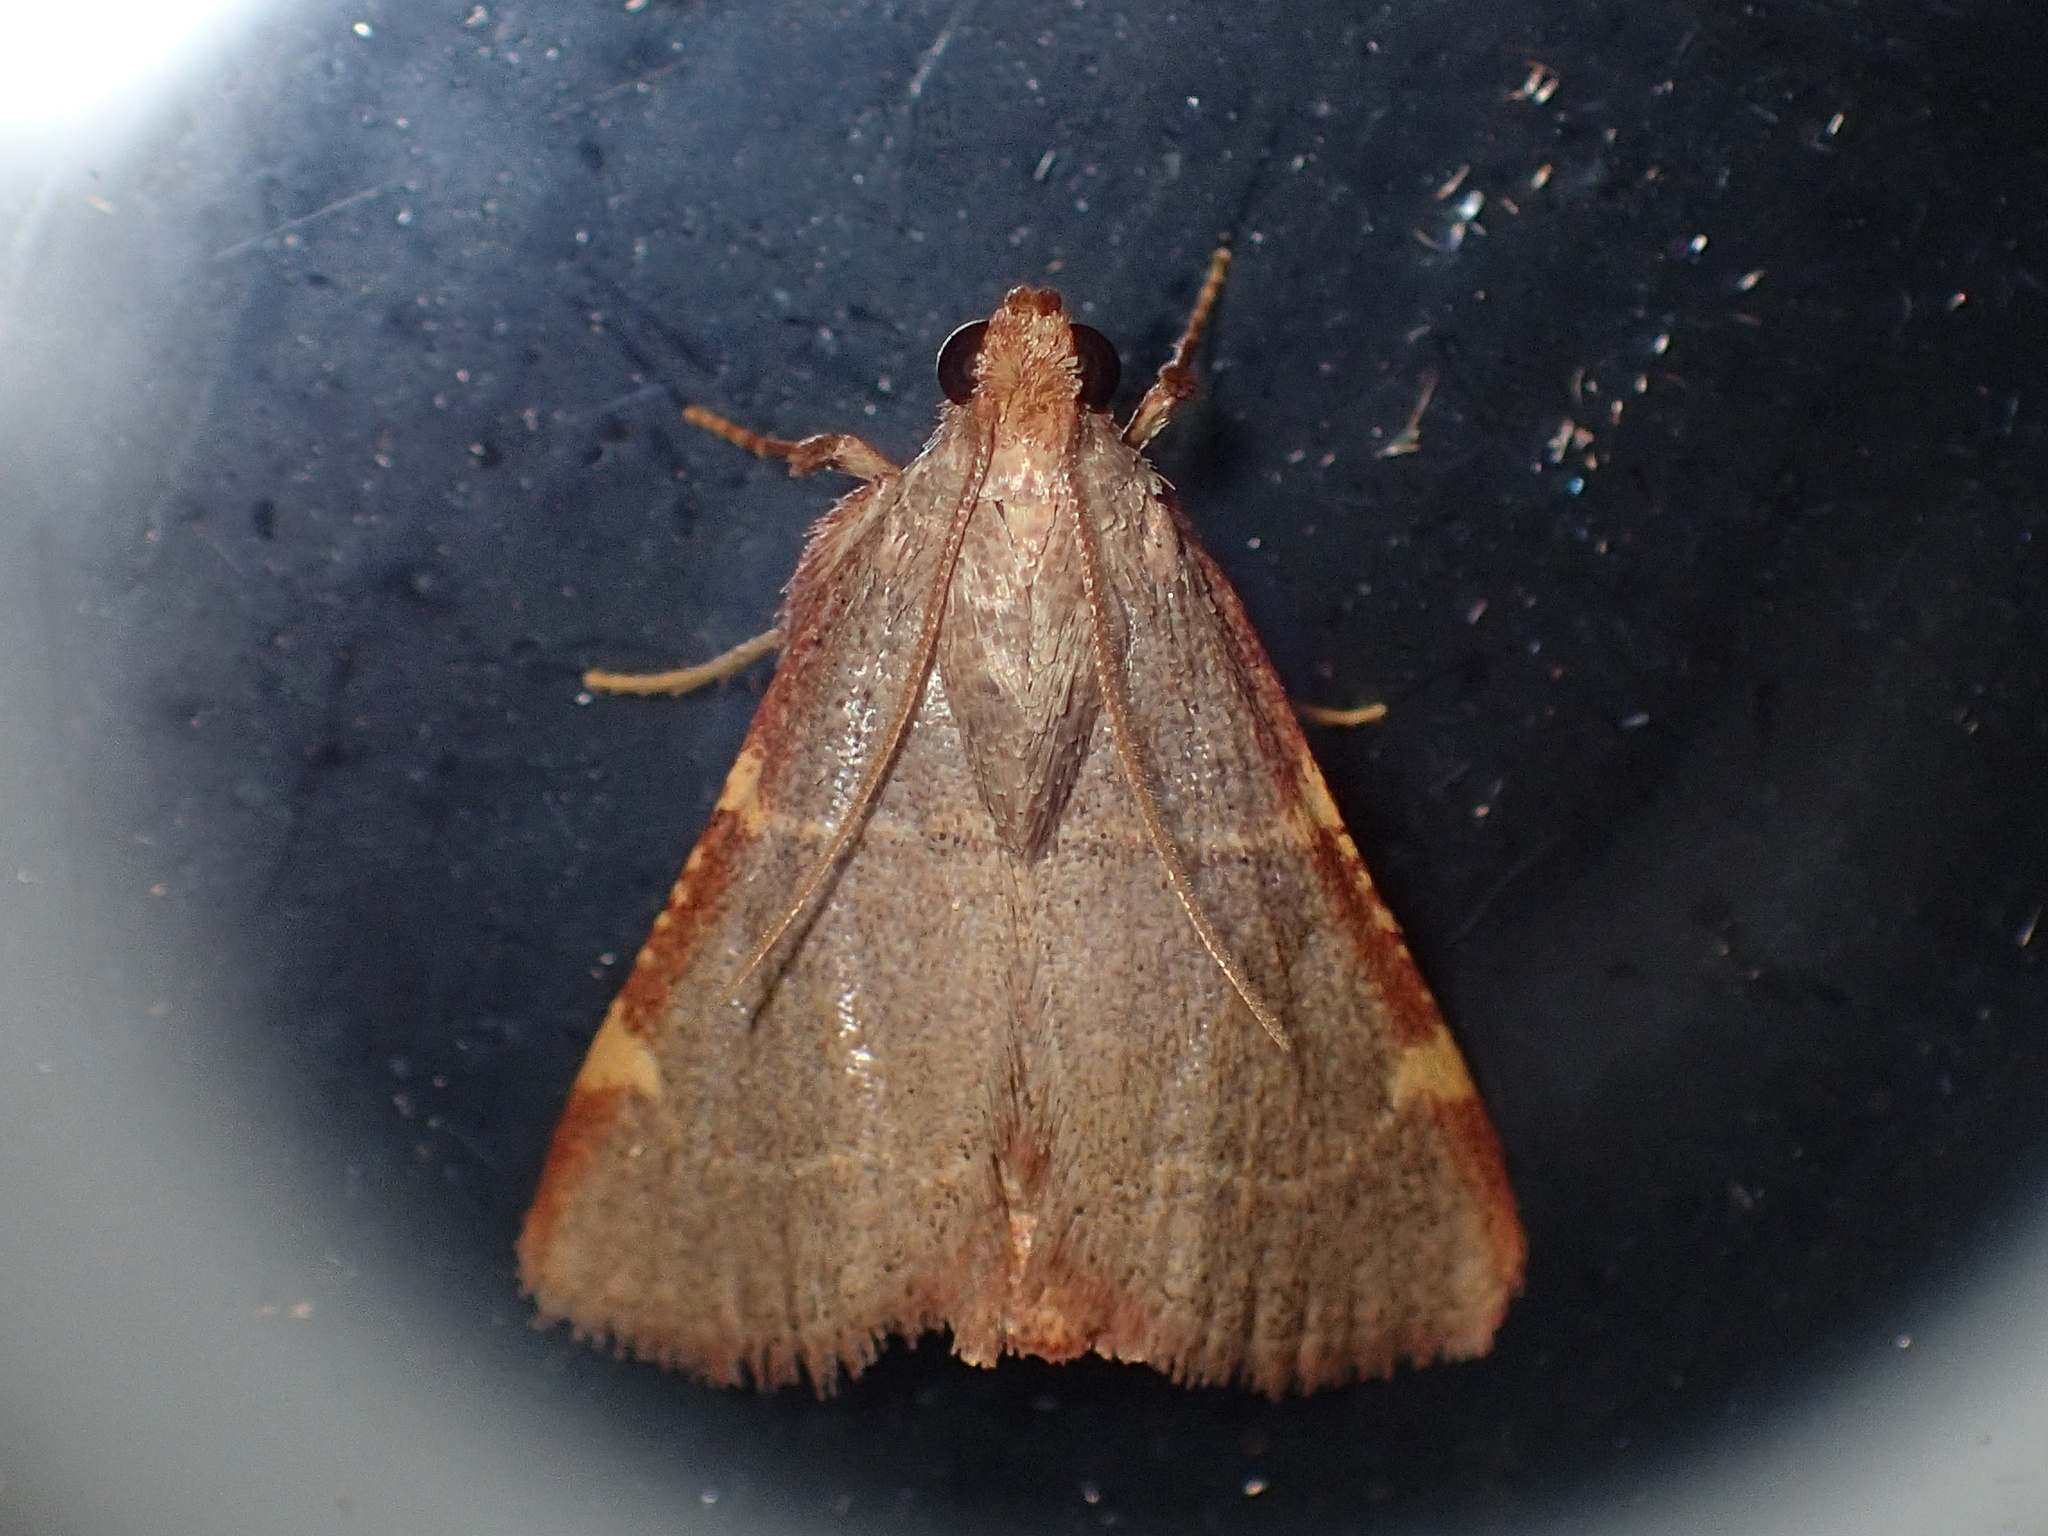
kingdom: Animalia
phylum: Arthropoda
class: Insecta
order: Lepidoptera
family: Pyralidae
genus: Hypsopygia
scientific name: Hypsopygia binodulalis
